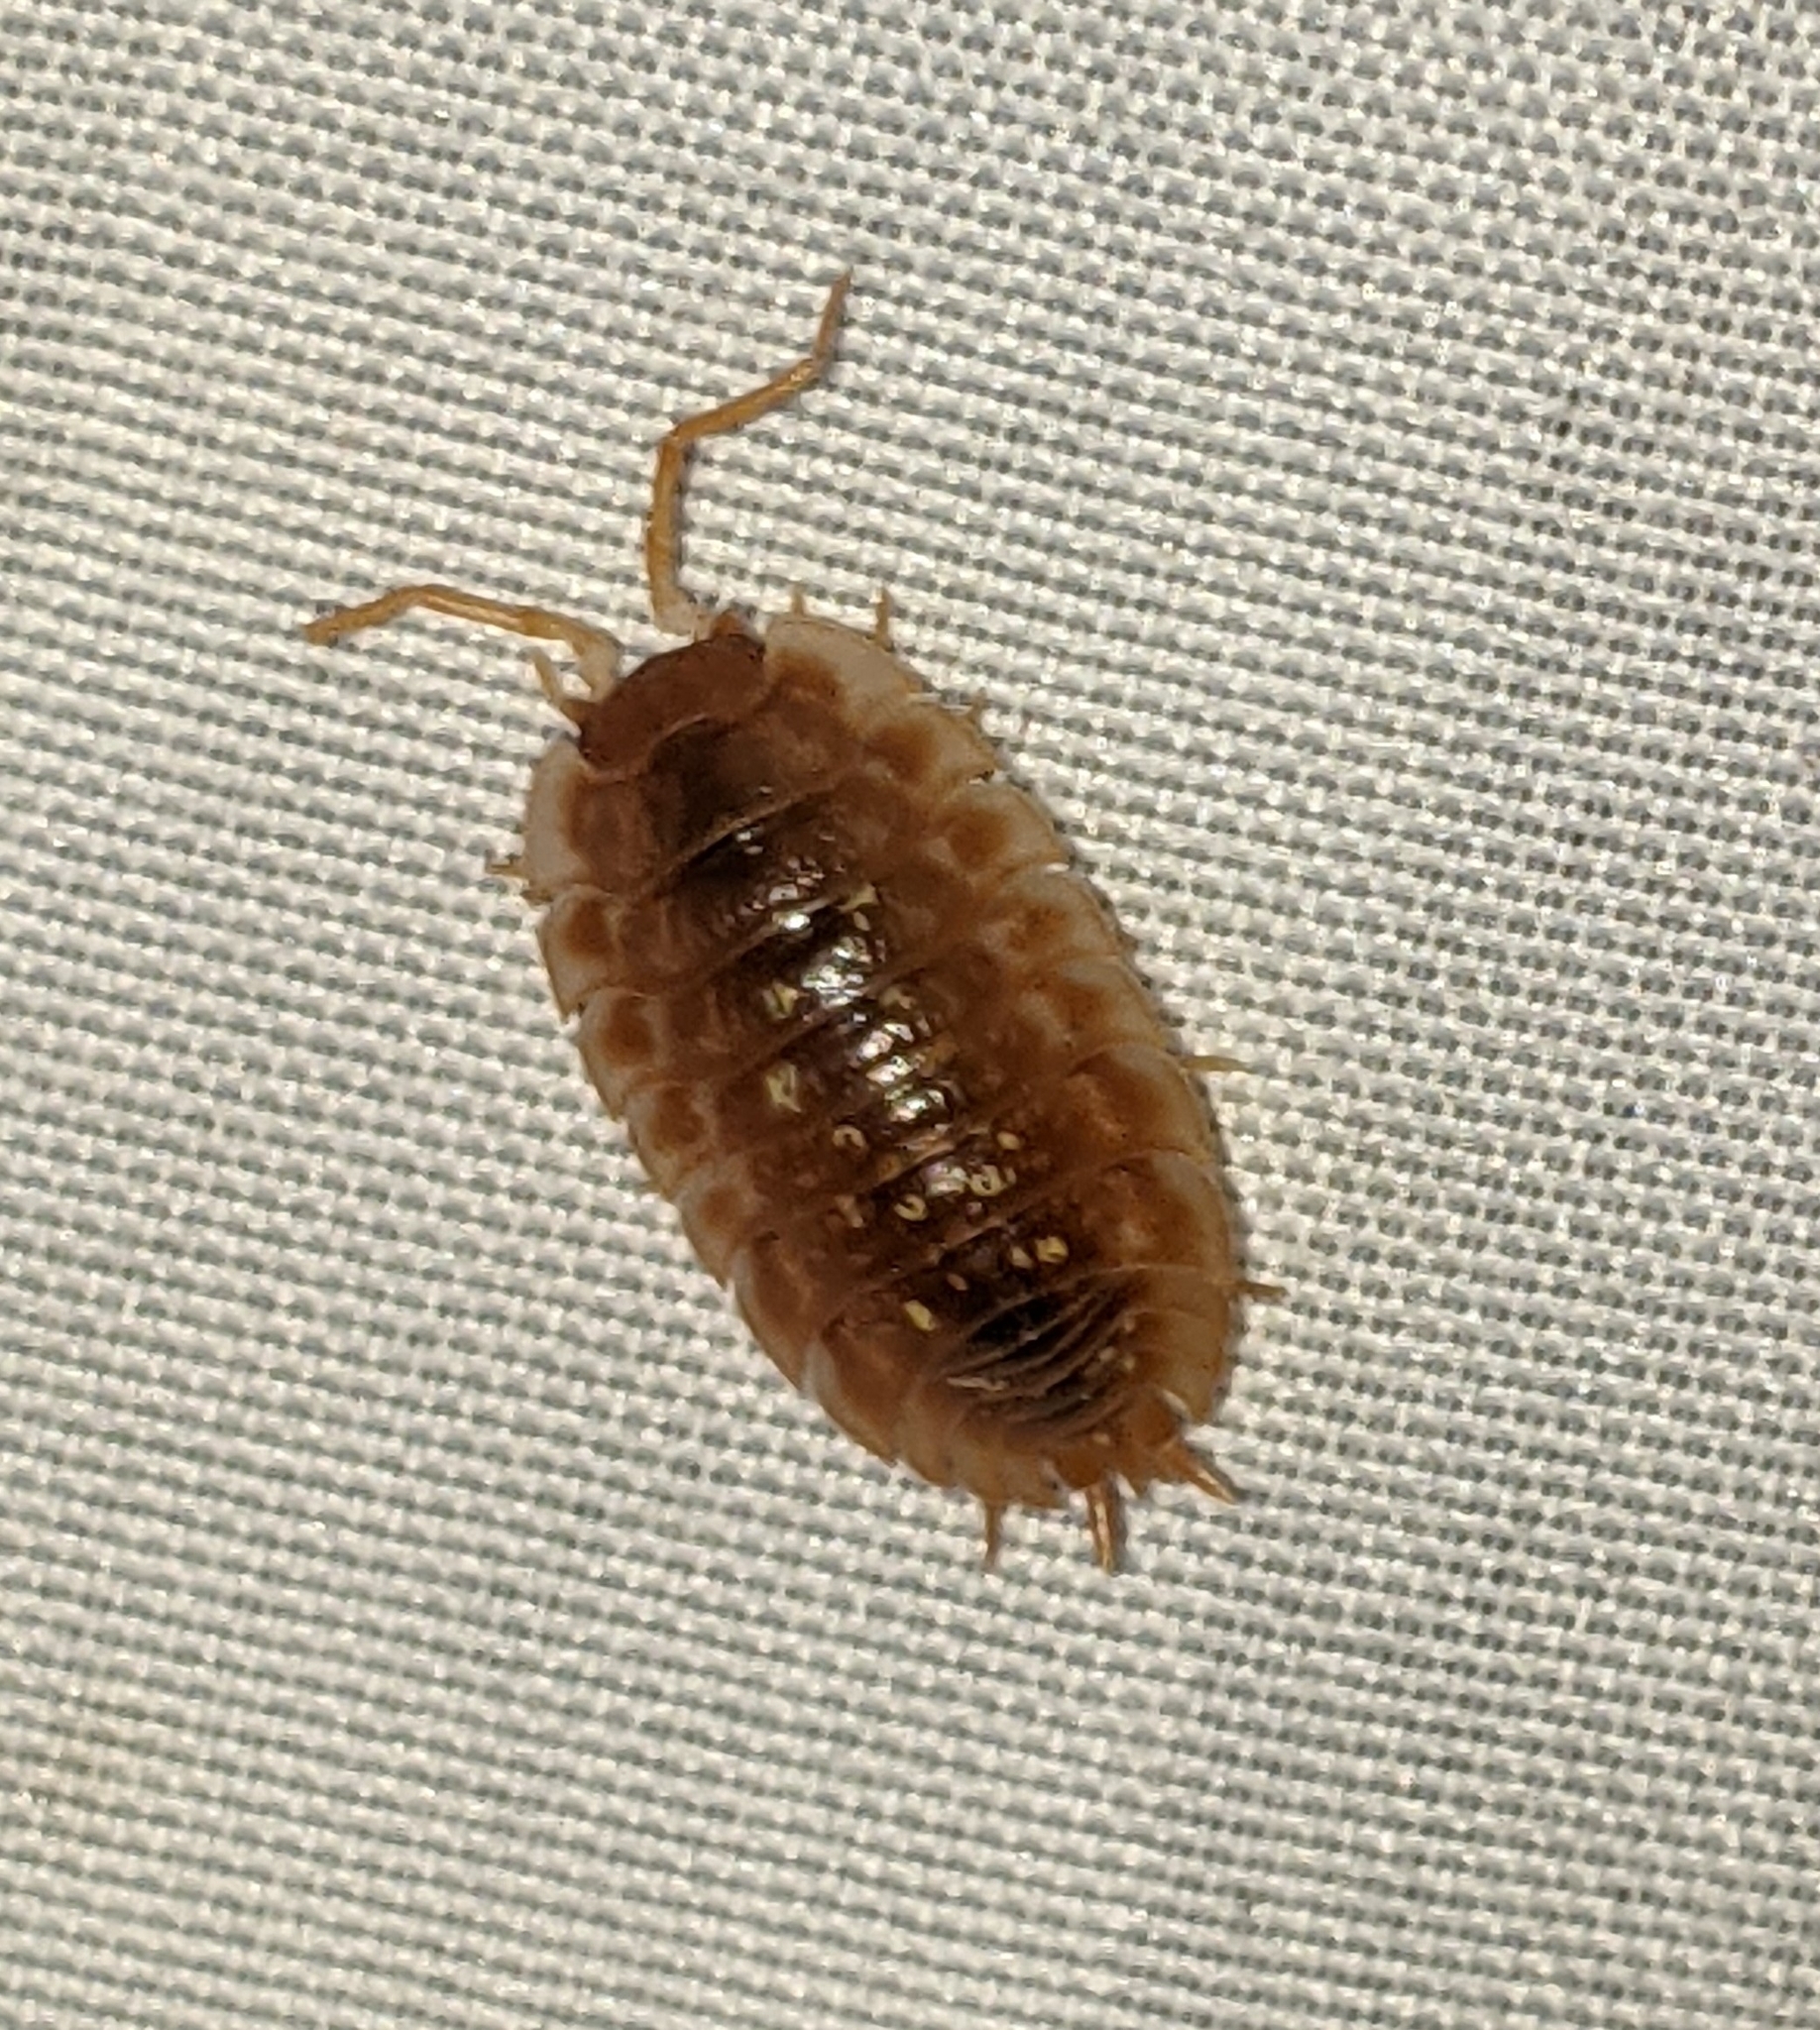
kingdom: Animalia
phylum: Arthropoda
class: Malacostraca
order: Isopoda
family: Oniscidae
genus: Oniscus
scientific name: Oniscus asellus
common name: Common shiny woodlouse
